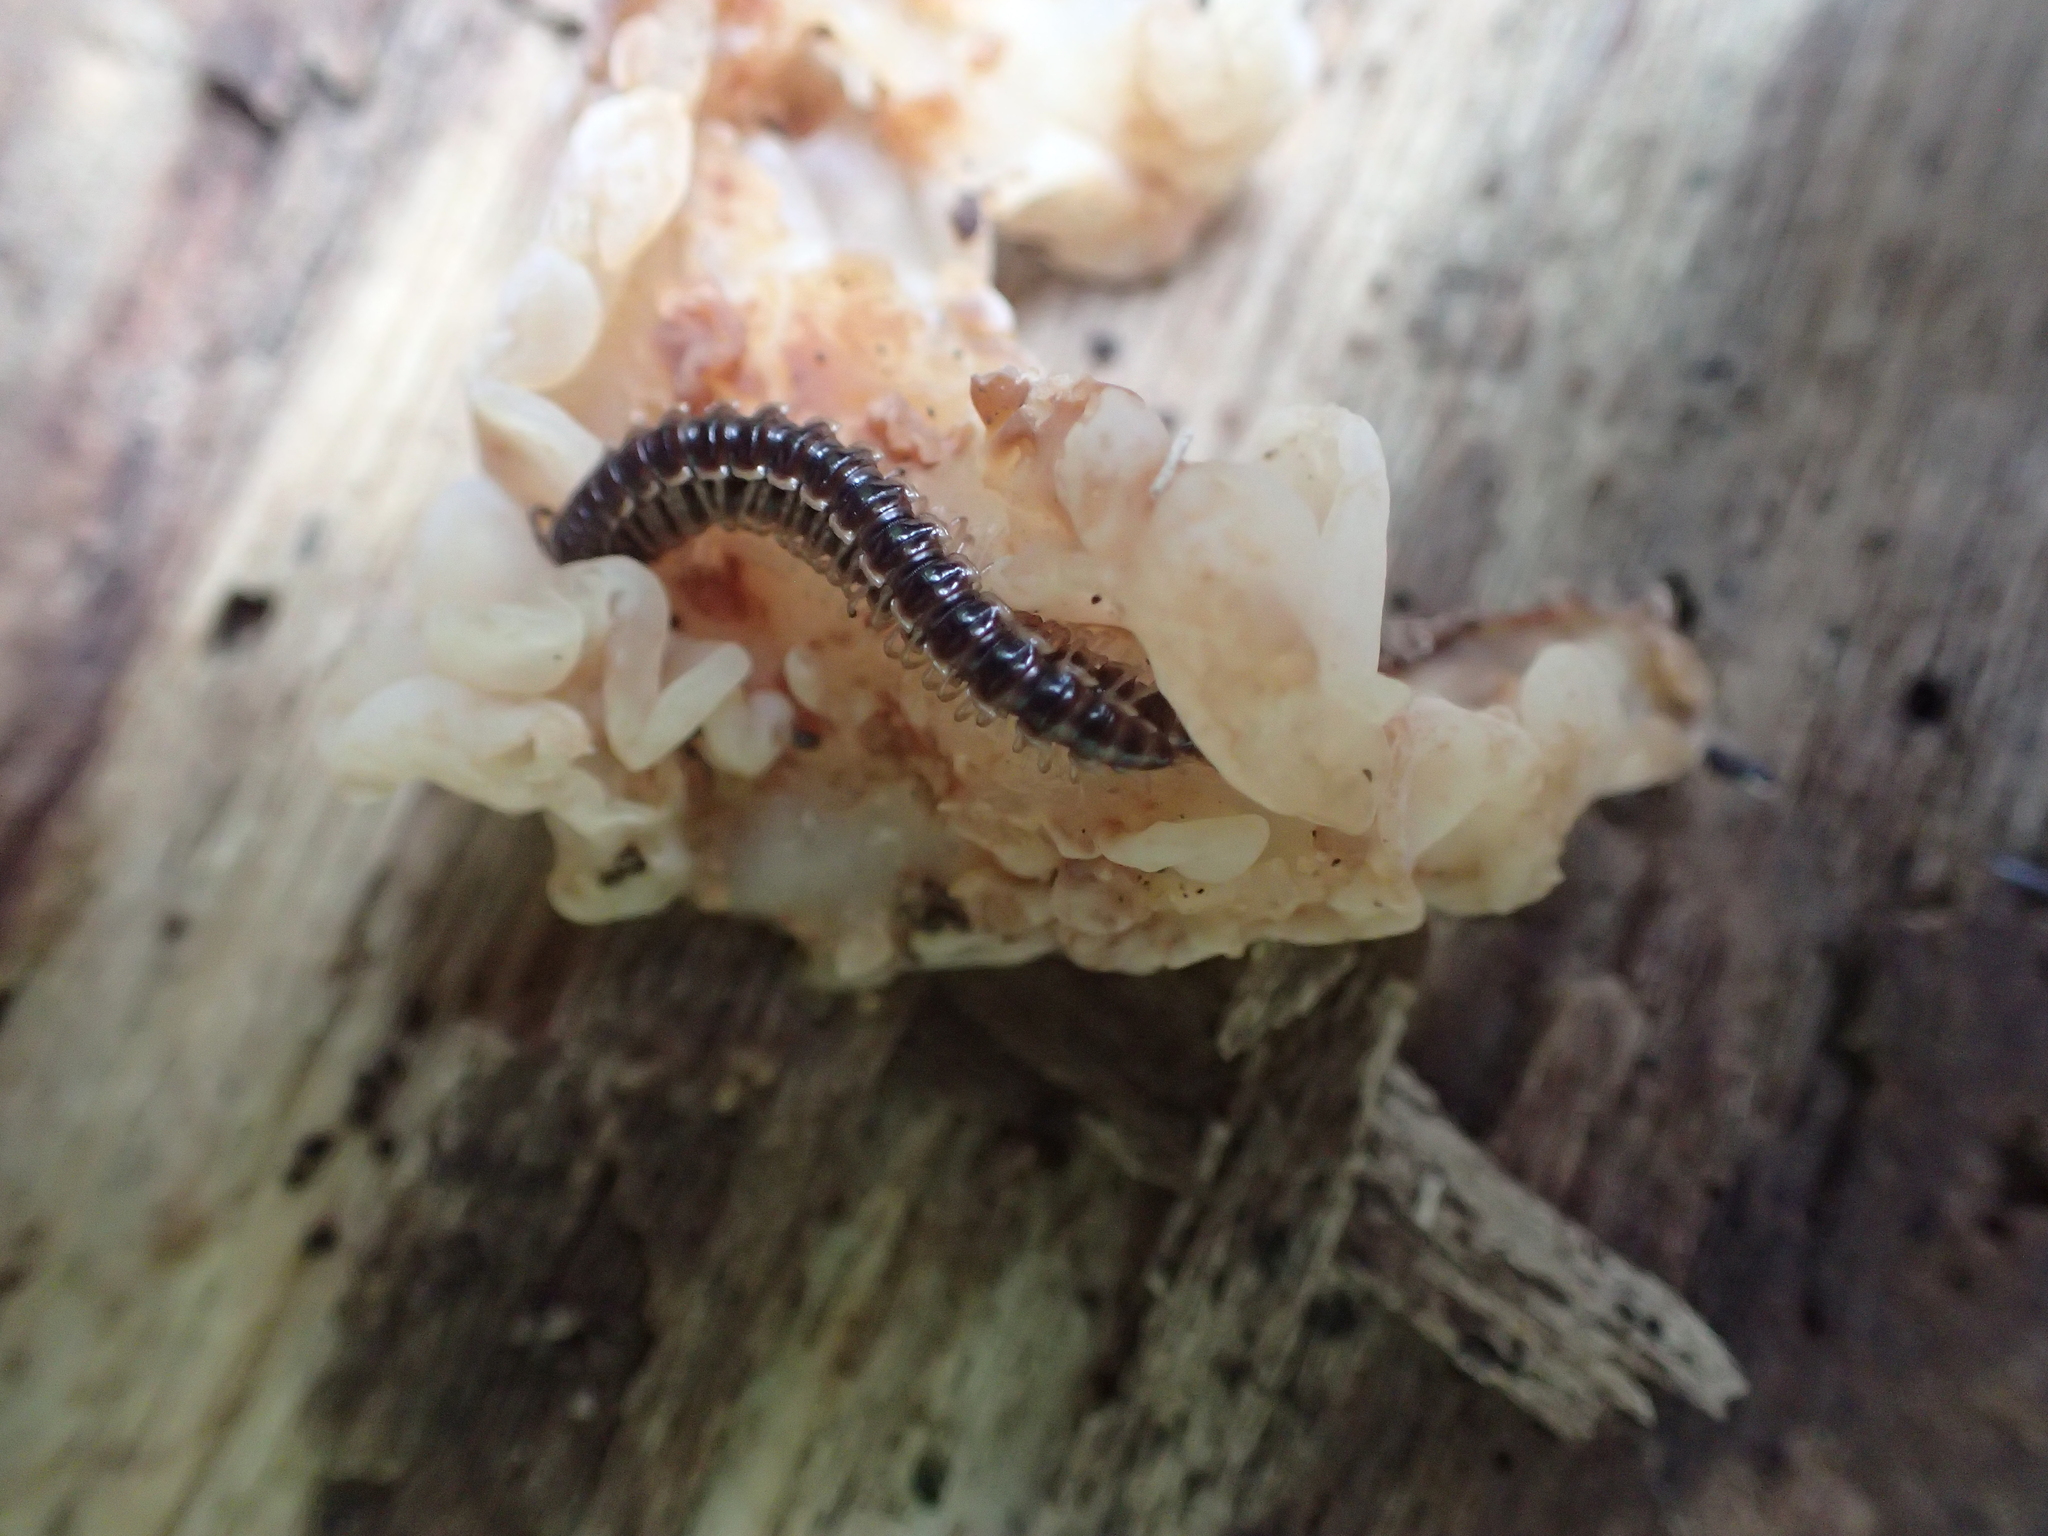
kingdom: Fungi
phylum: Basidiomycota
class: Agaricomycetes
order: Auriculariales
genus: Ductifera
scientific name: Ductifera pululahuana
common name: White jelly fungus
